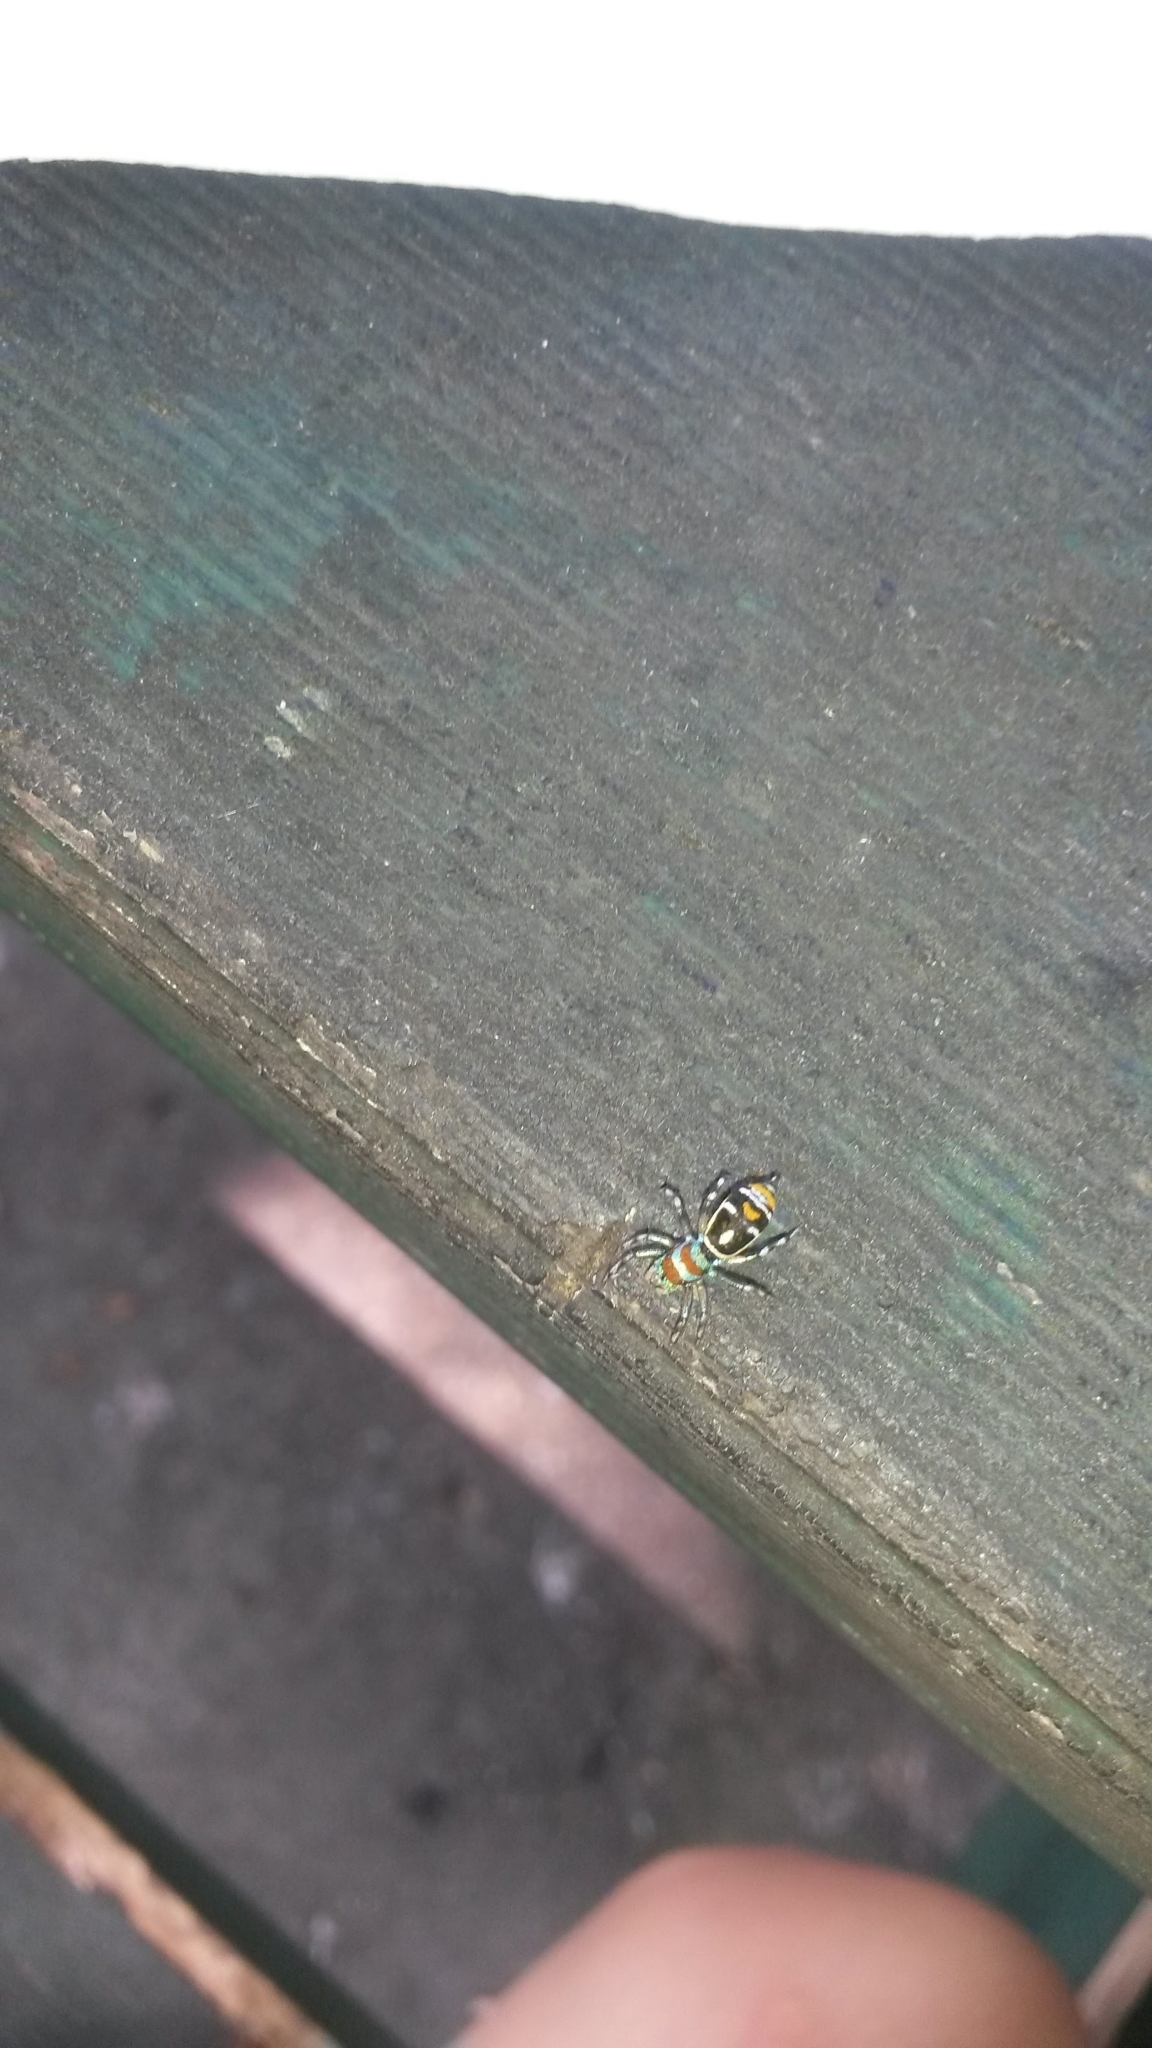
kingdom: Animalia
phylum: Arthropoda
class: Arachnida
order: Araneae
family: Salticidae
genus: Cosmophasis
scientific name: Cosmophasis micarioides
